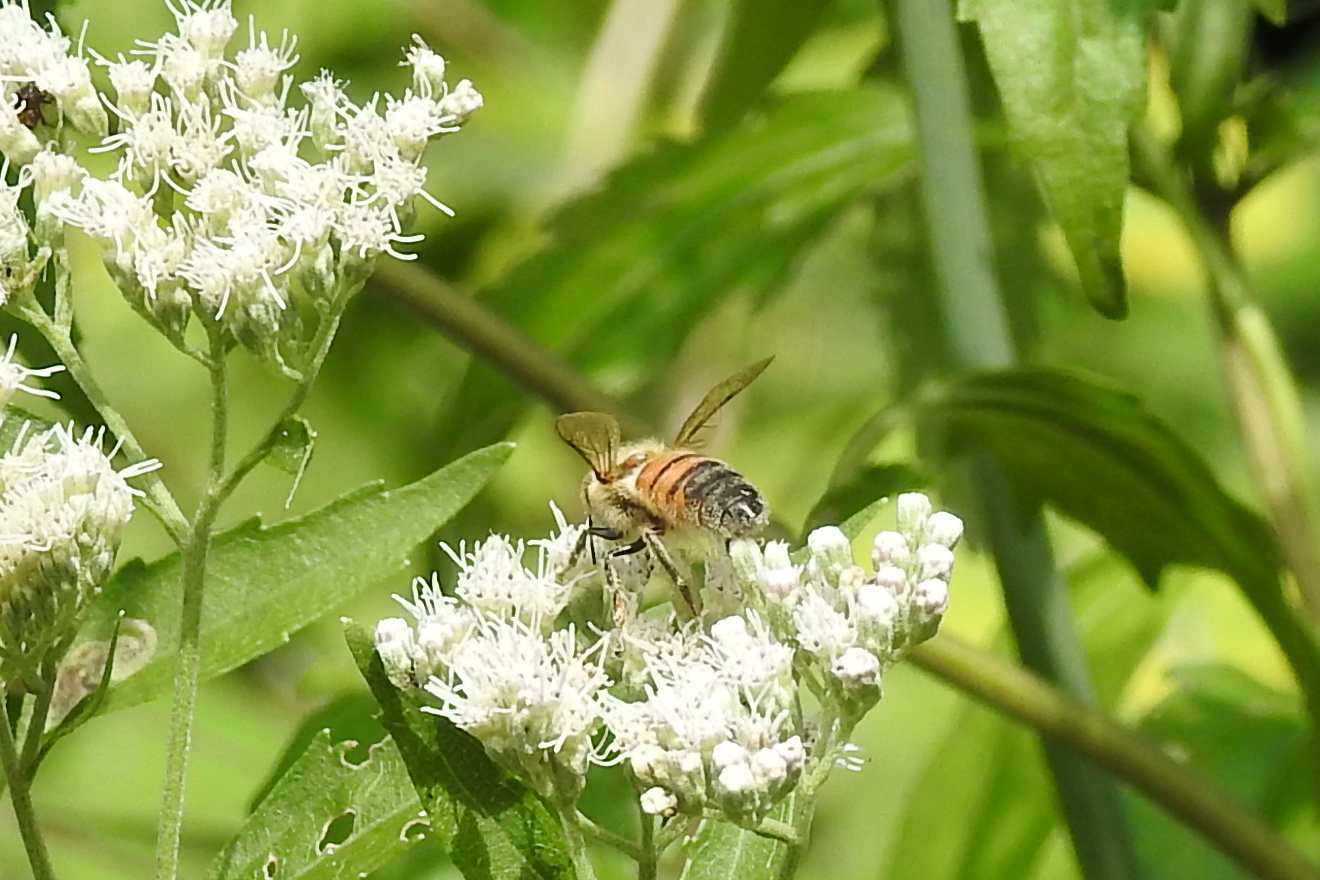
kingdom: Animalia
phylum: Arthropoda
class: Insecta
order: Hymenoptera
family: Apidae
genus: Apis
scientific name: Apis mellifera
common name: Honey bee
